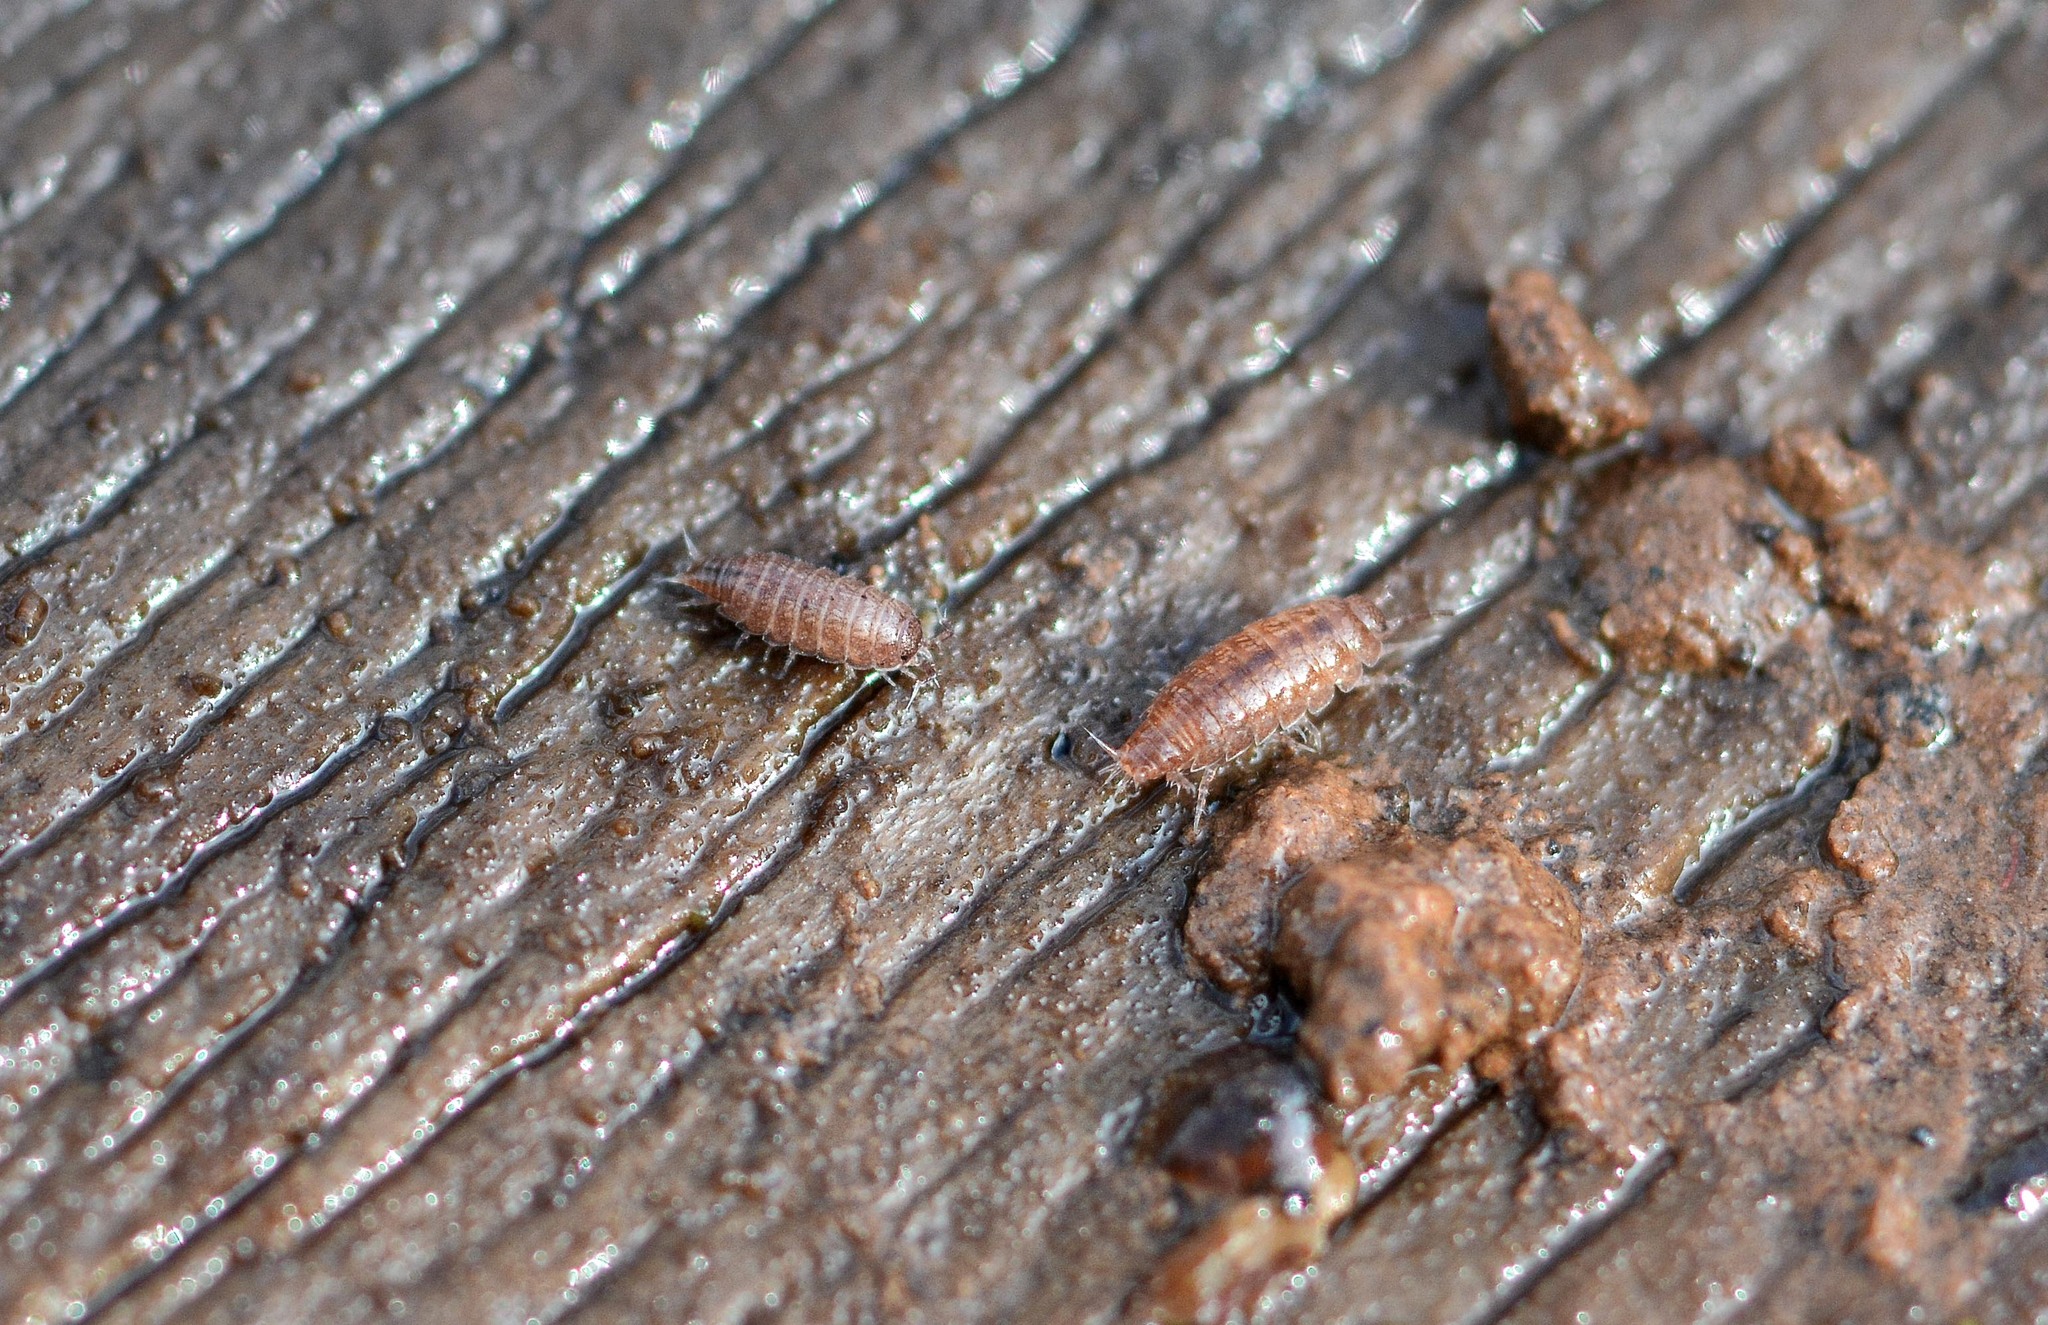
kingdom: Animalia
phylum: Arthropoda
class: Malacostraca
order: Isopoda
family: Trichoniscidae
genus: Trichoniscus
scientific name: Trichoniscus
